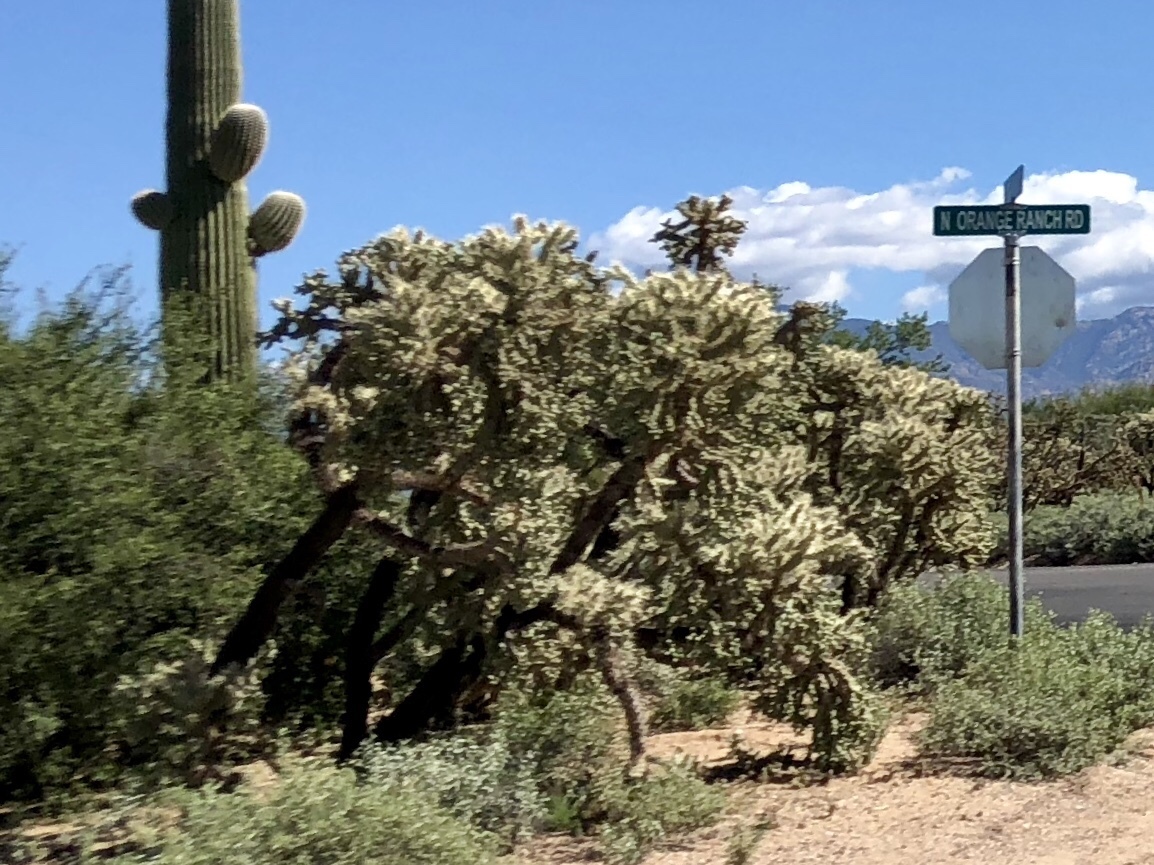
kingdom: Plantae
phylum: Tracheophyta
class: Magnoliopsida
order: Caryophyllales
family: Cactaceae
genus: Cylindropuntia
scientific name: Cylindropuntia fulgida
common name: Jumping cholla
